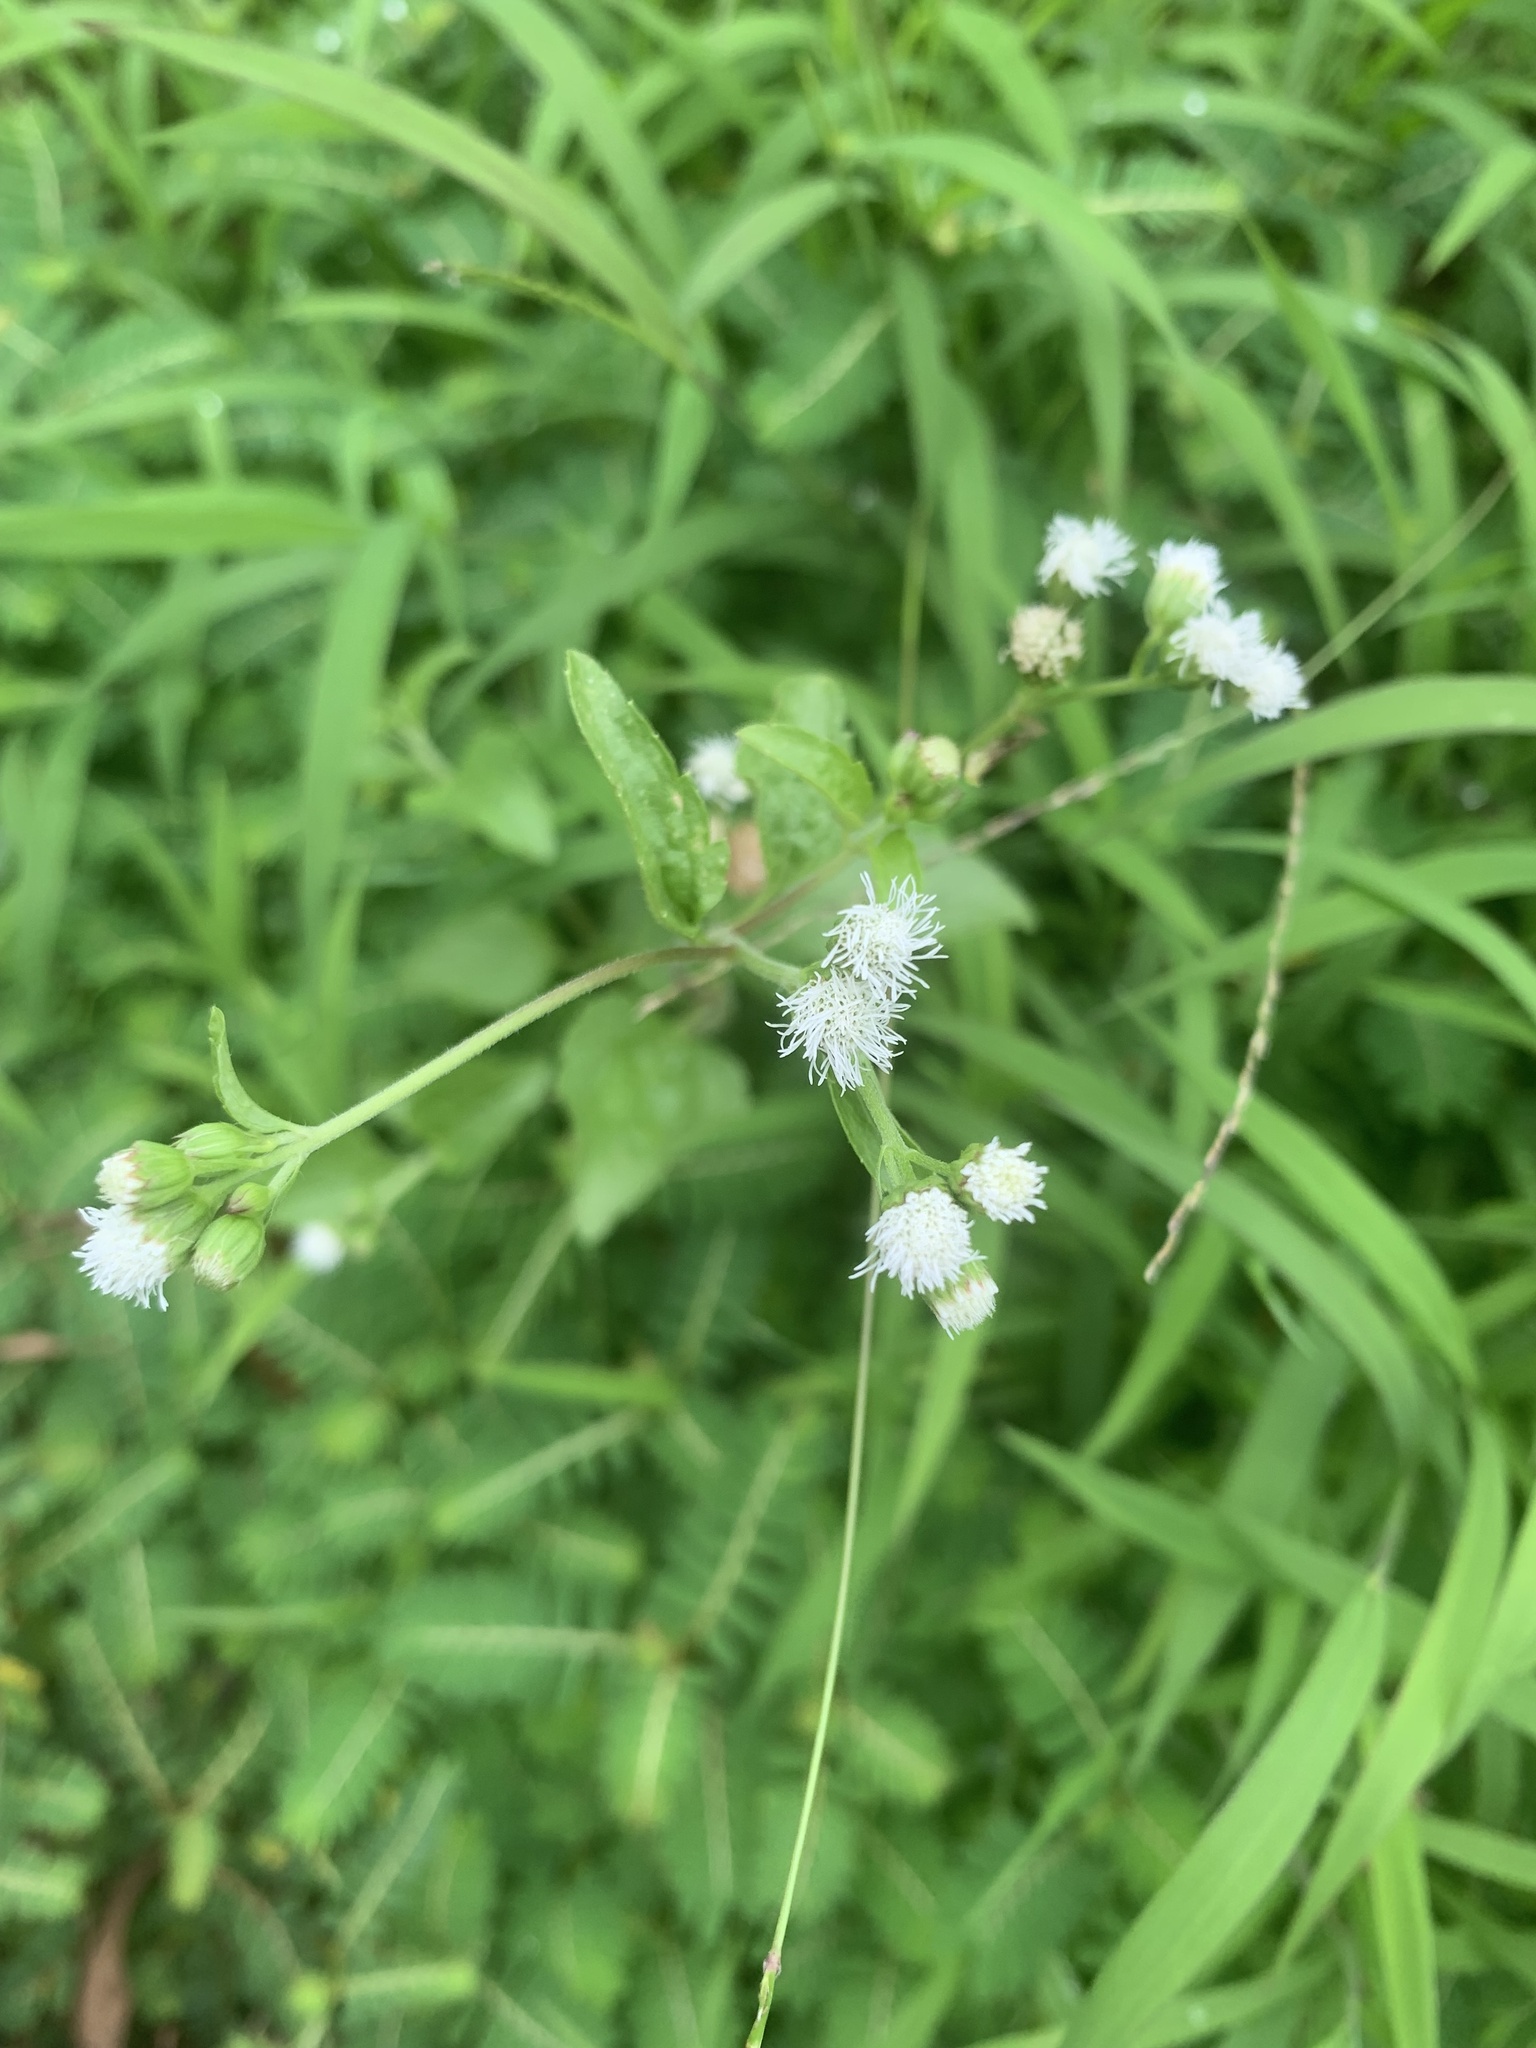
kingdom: Plantae
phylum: Tracheophyta
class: Magnoliopsida
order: Asterales
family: Asteraceae
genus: Ageratum
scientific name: Ageratum conyzoides
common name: Tropical whiteweed
